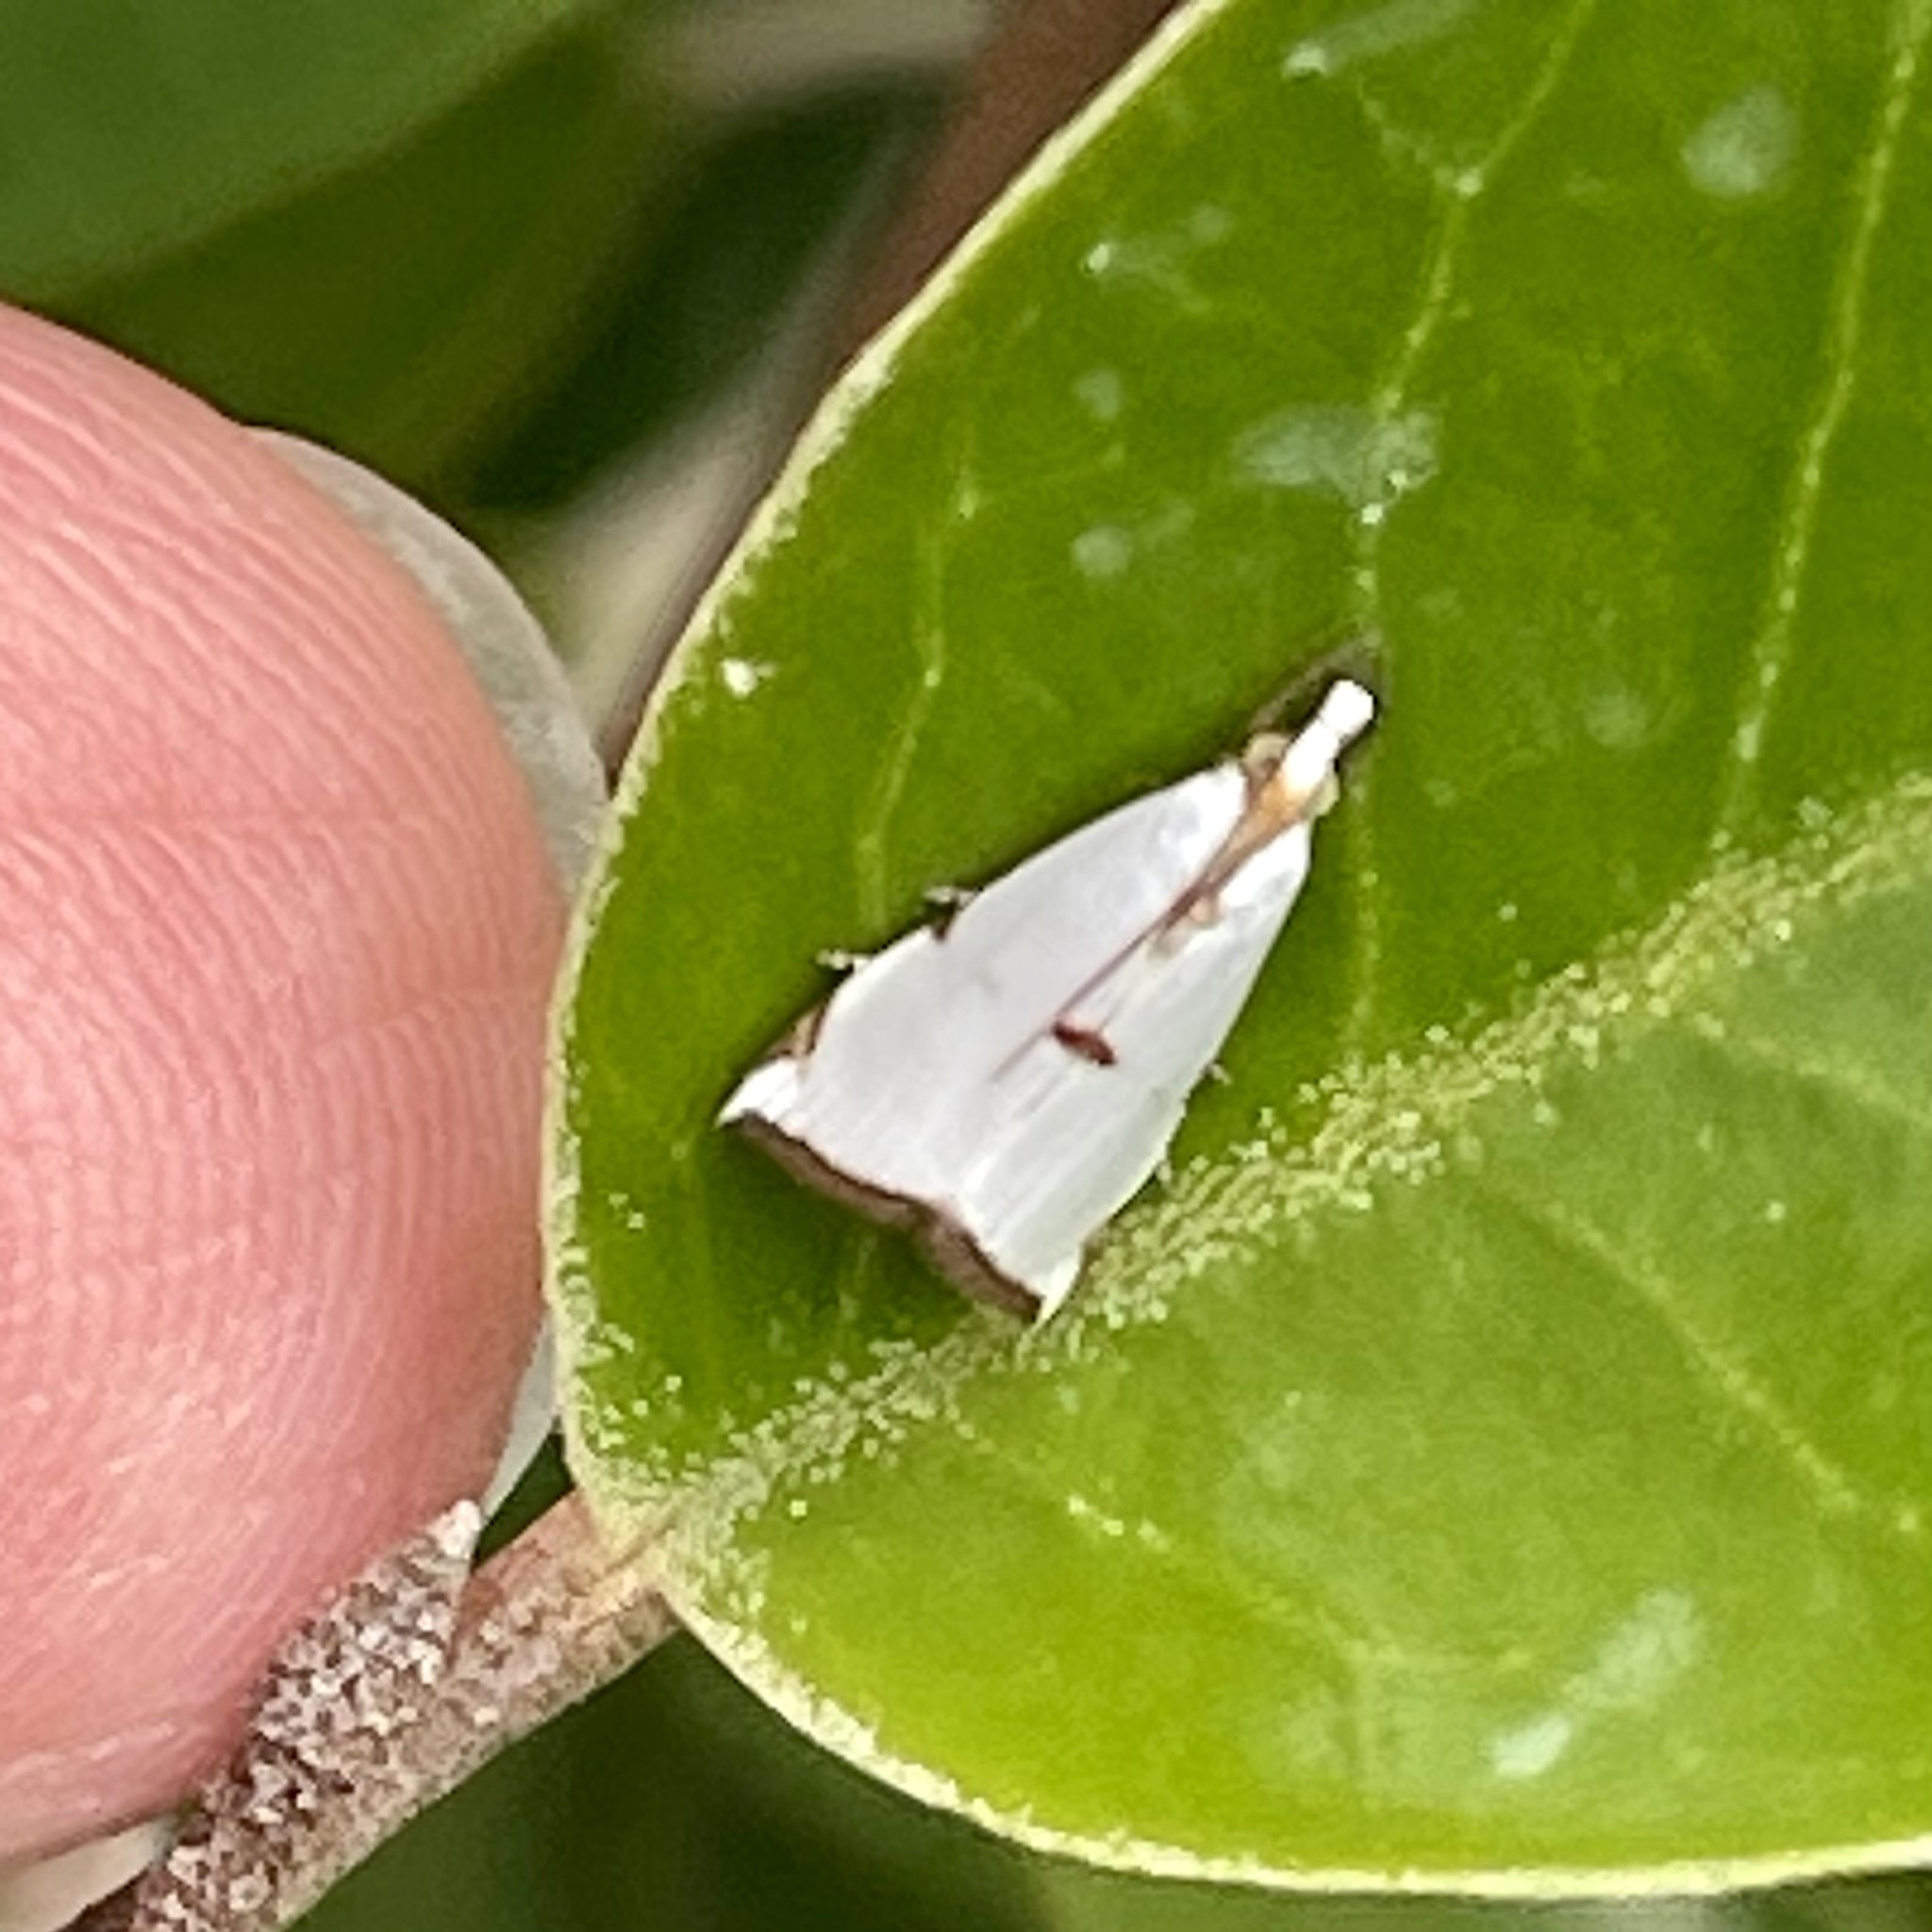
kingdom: Animalia
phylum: Arthropoda
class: Insecta
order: Lepidoptera
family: Crambidae
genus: Argyria
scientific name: Argyria lacteella
